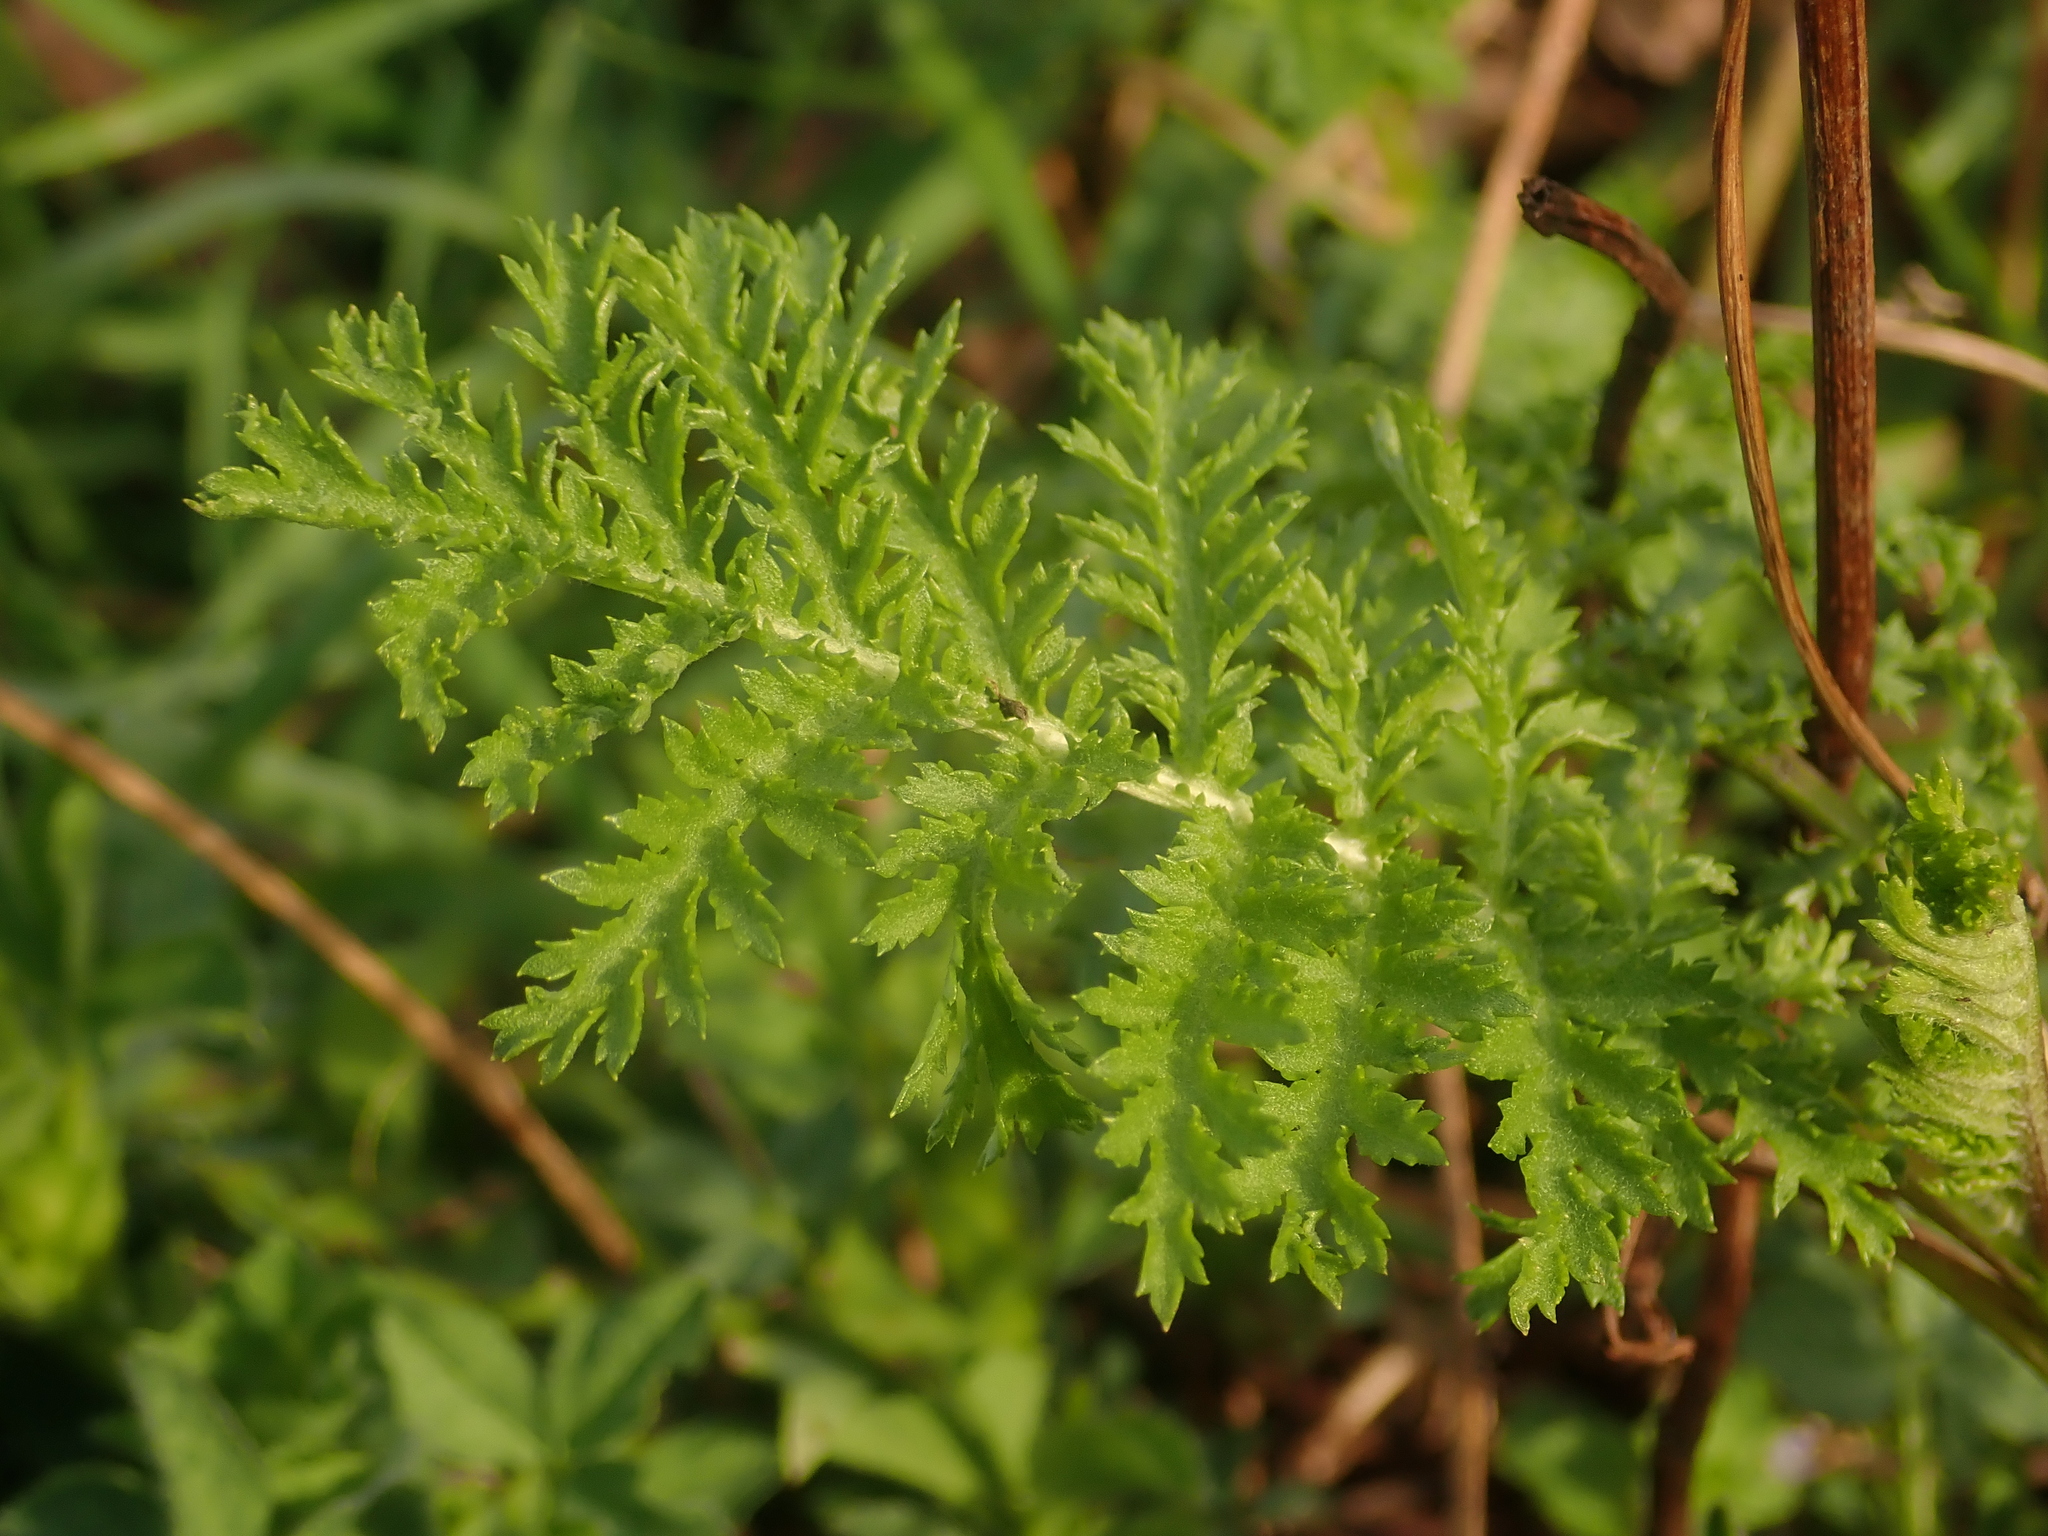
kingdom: Plantae
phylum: Tracheophyta
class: Magnoliopsida
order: Asterales
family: Asteraceae
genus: Tanacetum
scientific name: Tanacetum vulgare
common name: Common tansy
